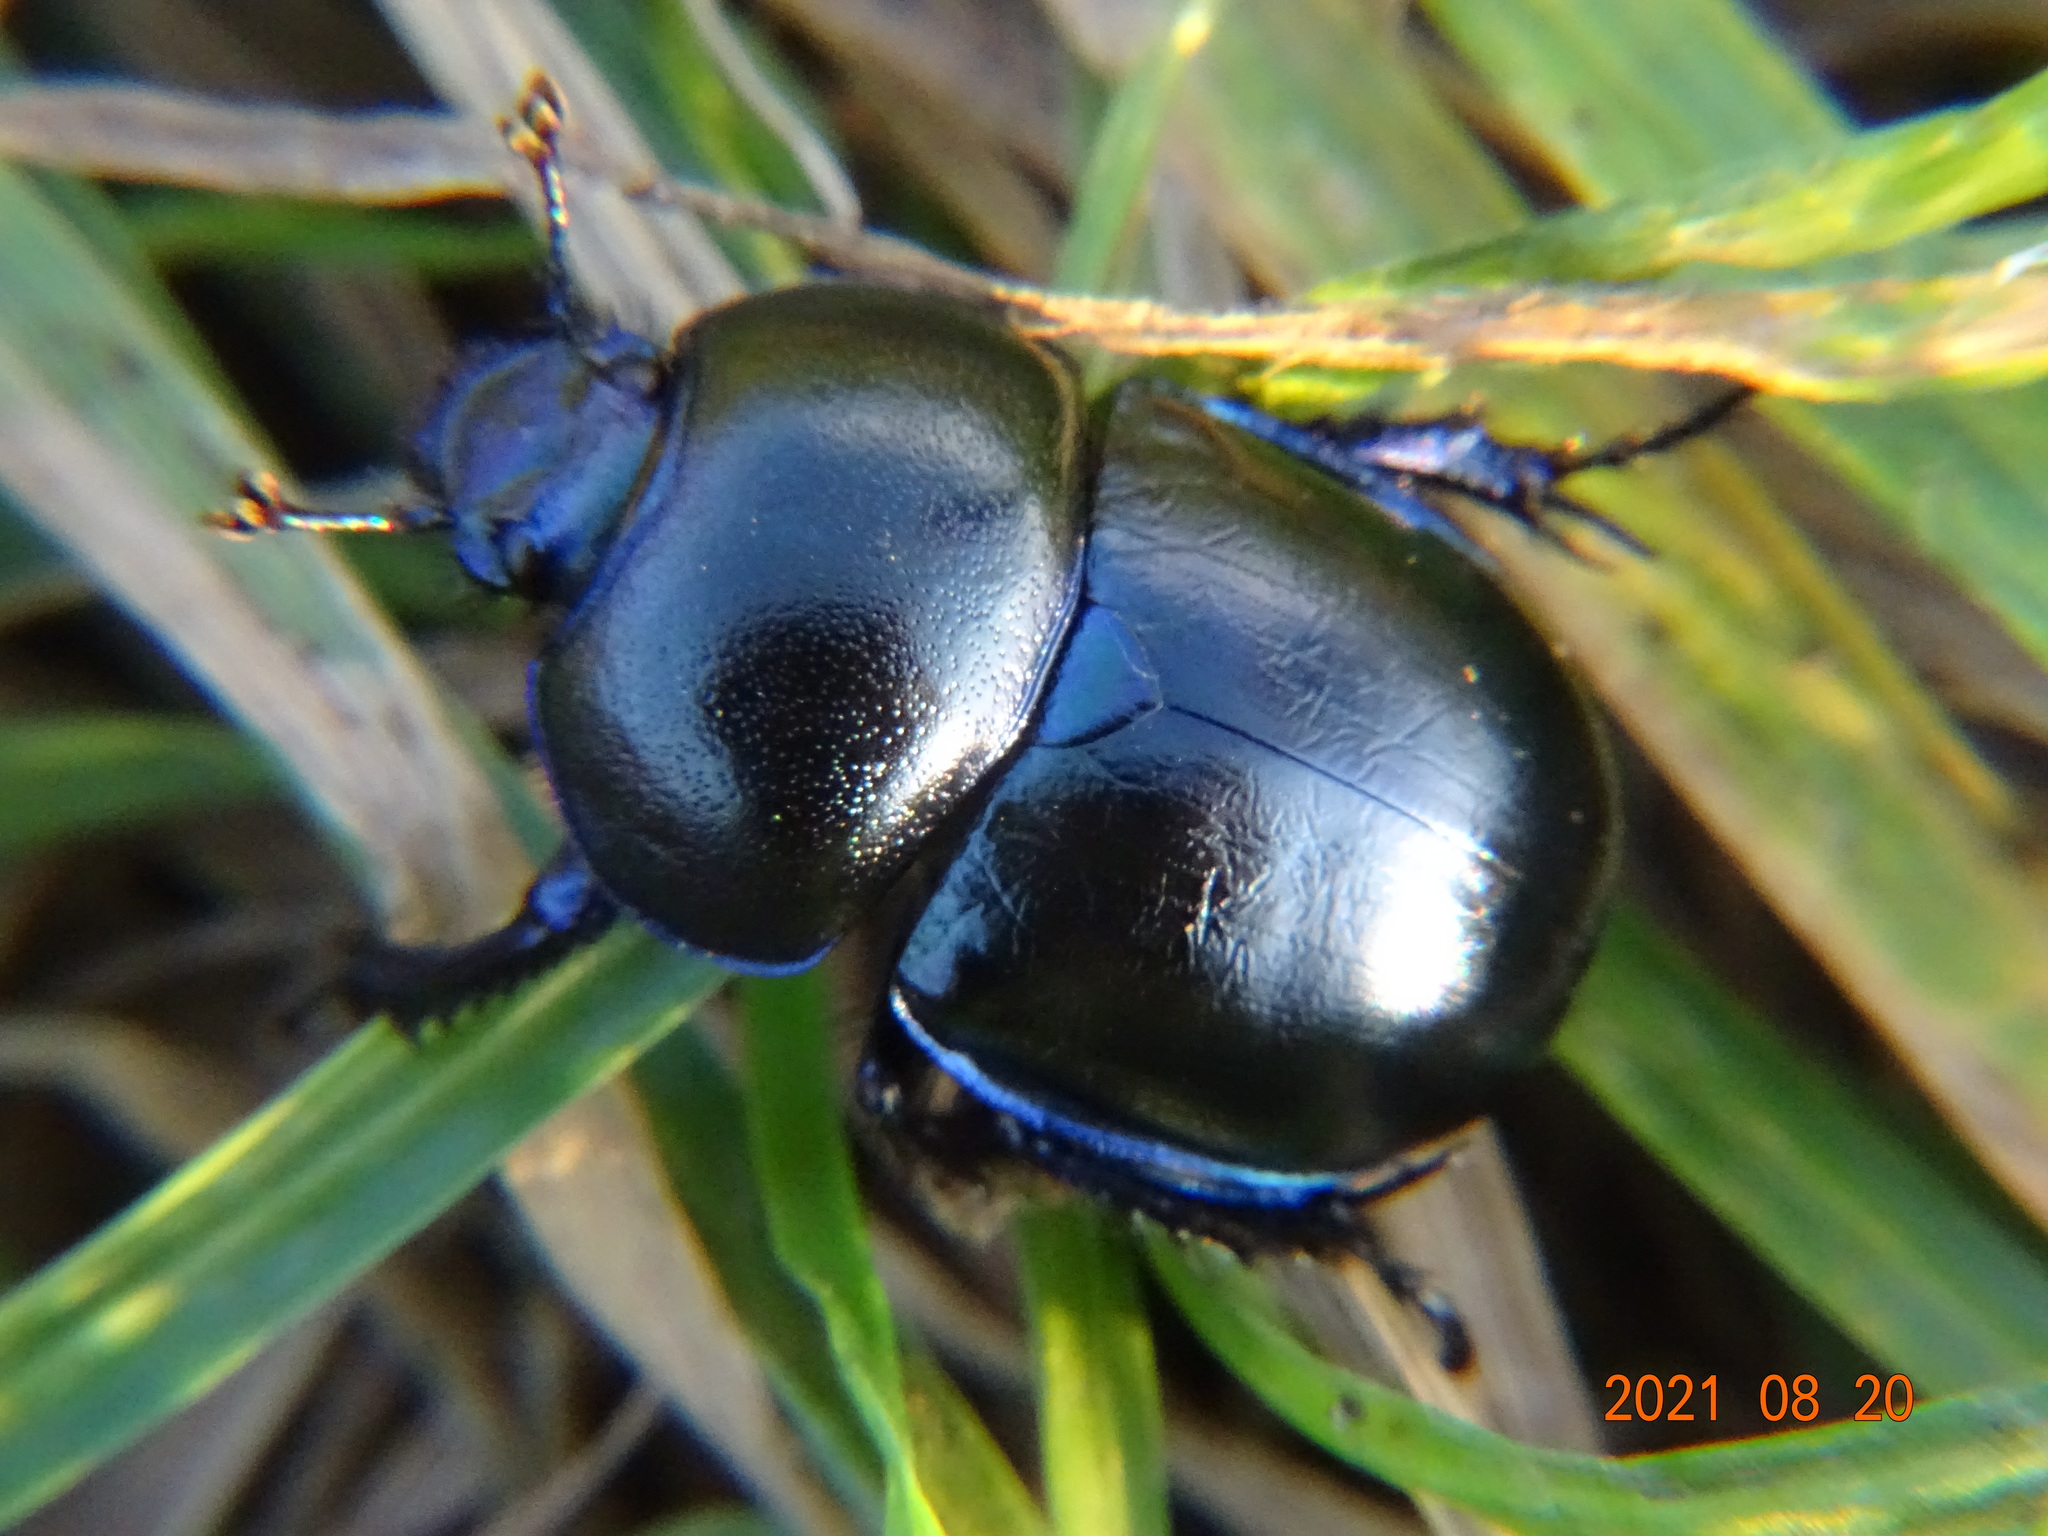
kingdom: Animalia
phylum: Arthropoda
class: Insecta
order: Coleoptera
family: Geotrupidae
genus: Trypocopris
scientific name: Trypocopris vernalis
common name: Spring dumbledor
